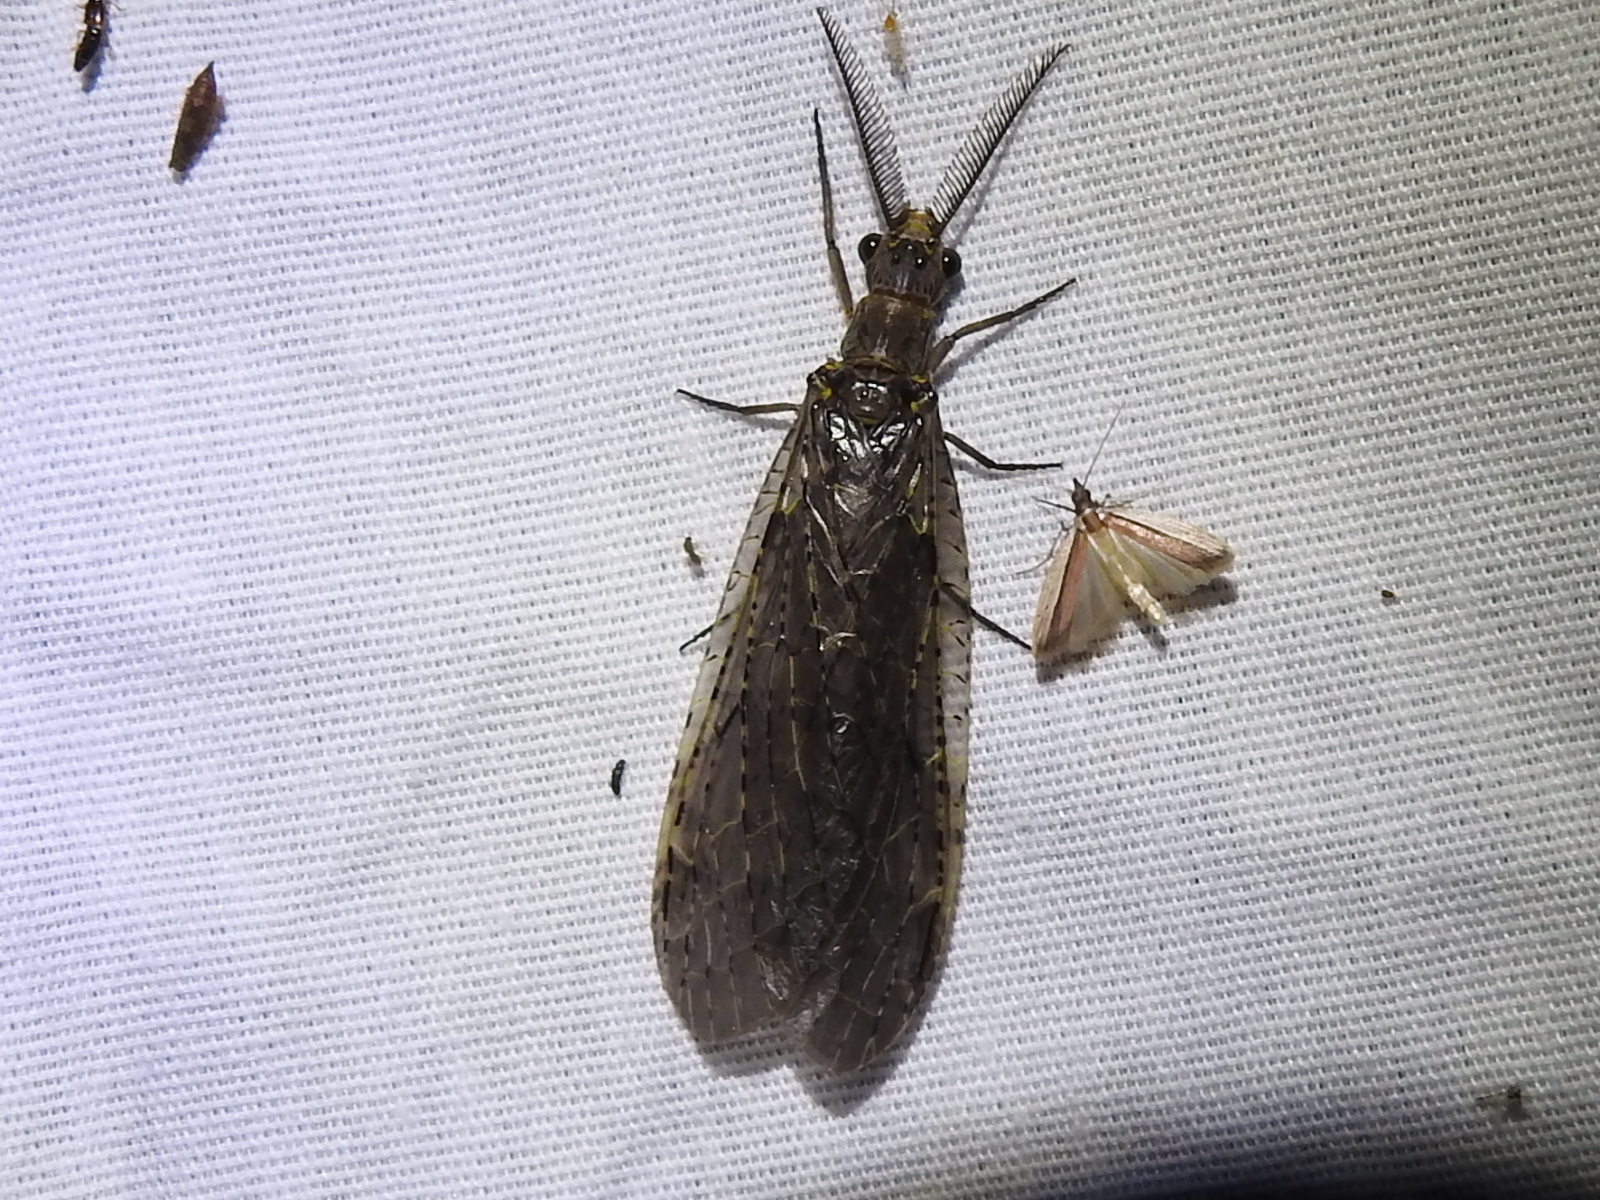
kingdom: Animalia
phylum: Arthropoda
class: Insecta
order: Megaloptera
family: Corydalidae
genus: Chauliodes
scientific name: Chauliodes rastricornis
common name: Spring fishfly
